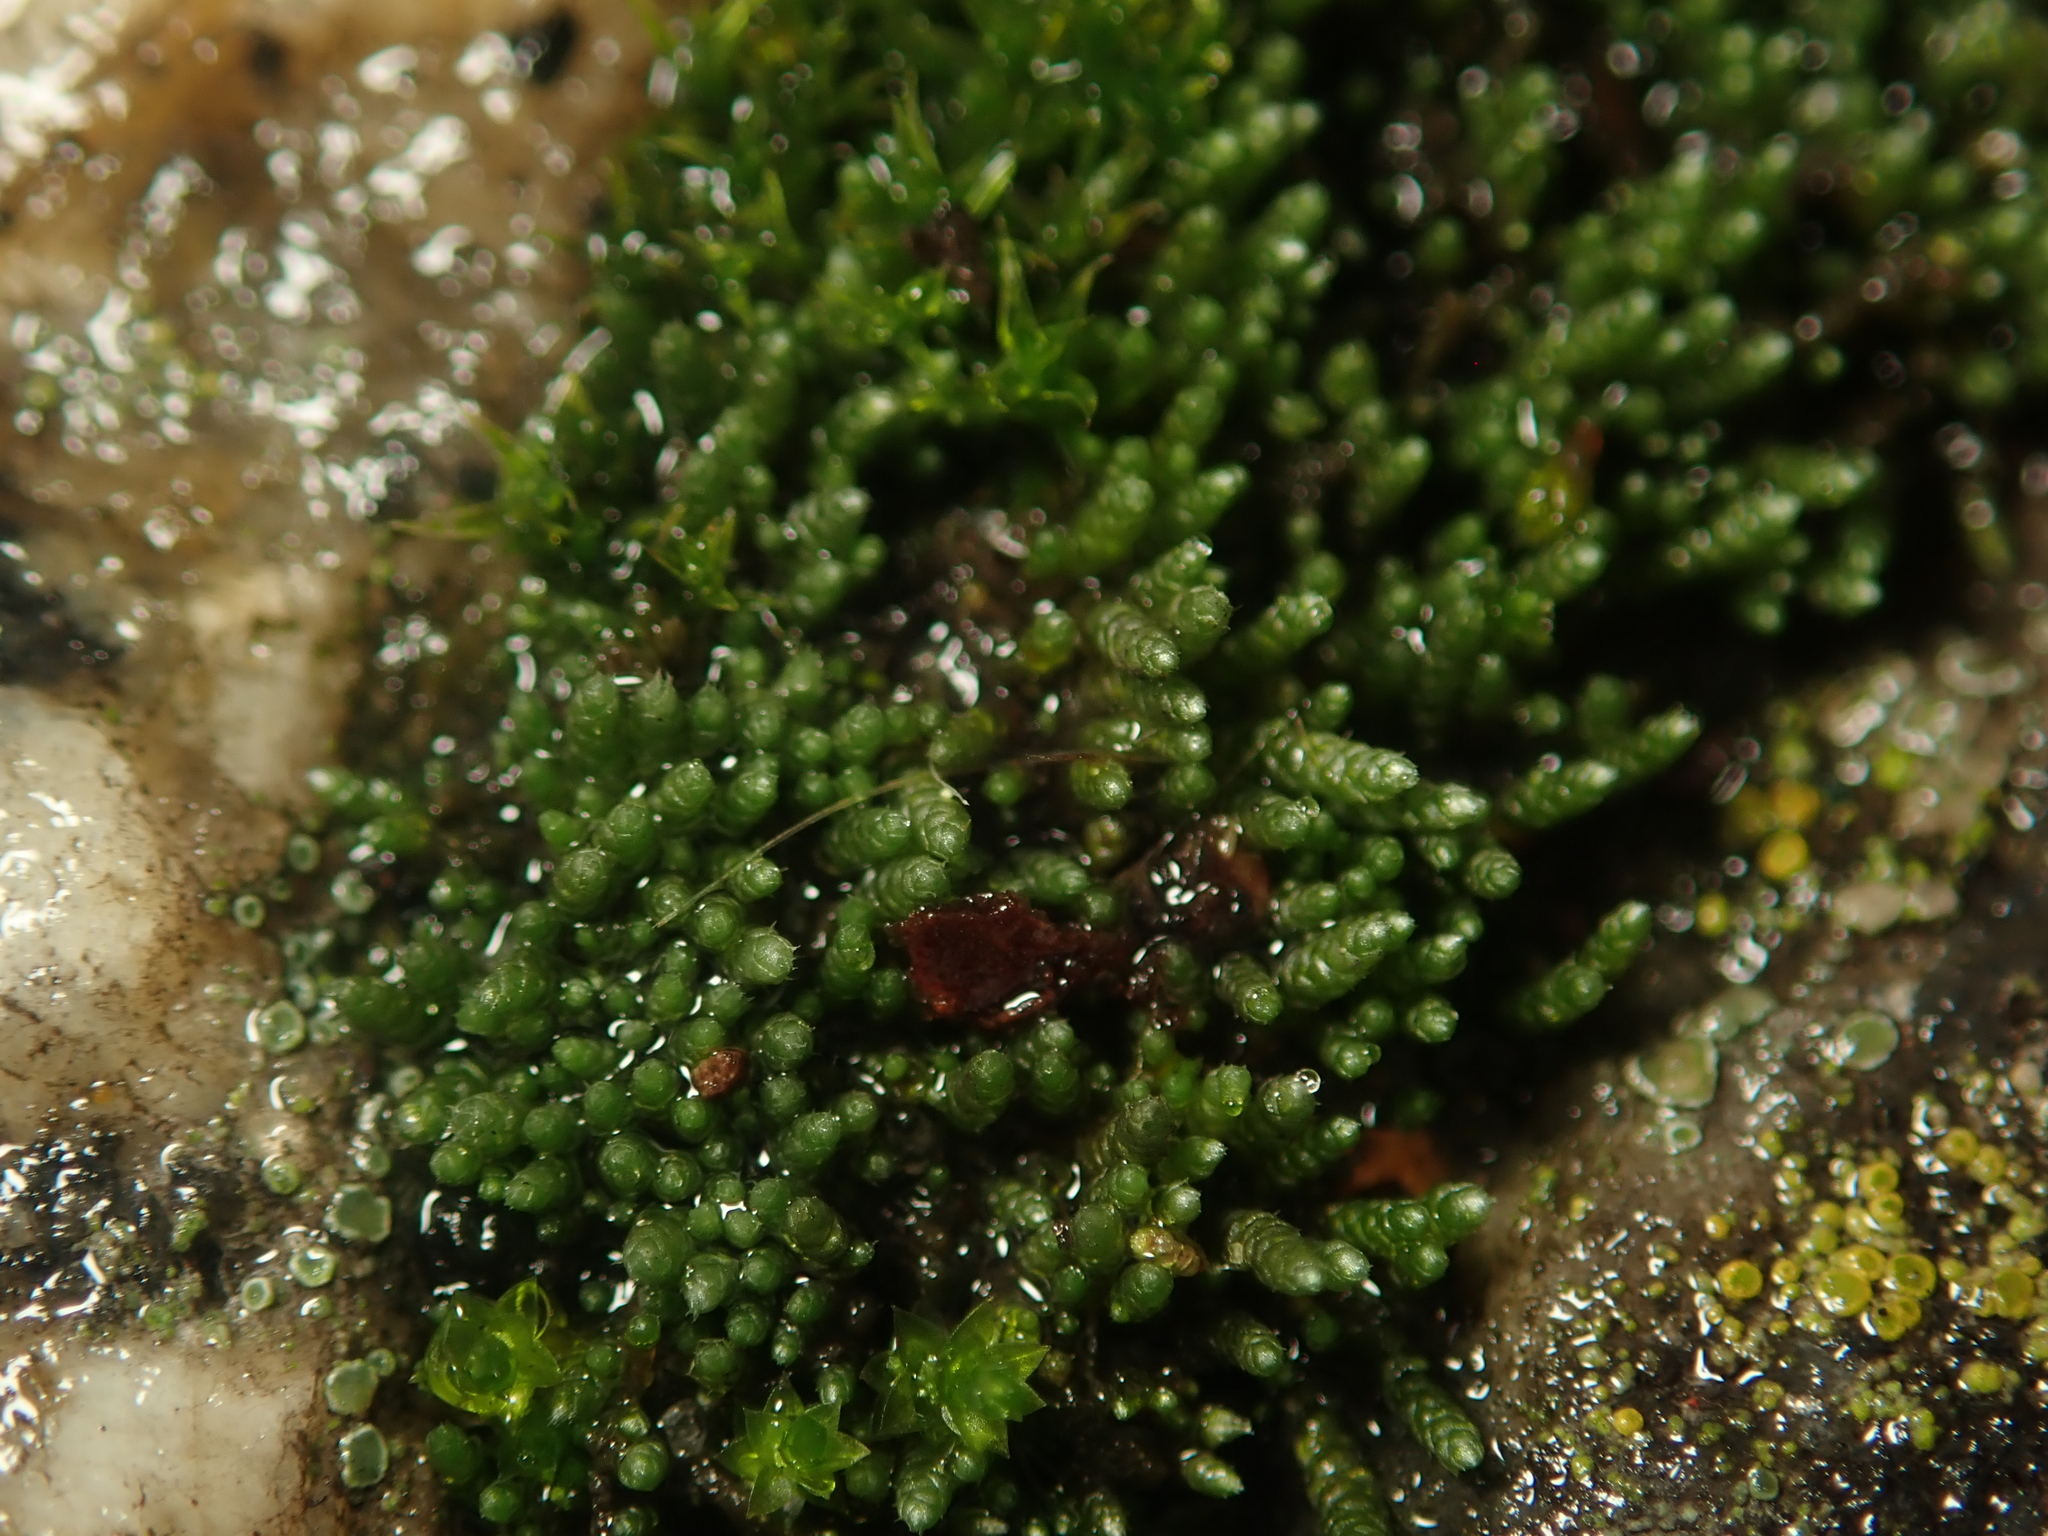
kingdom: Plantae
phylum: Bryophyta
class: Bryopsida
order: Bryales
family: Bryaceae
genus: Bryum
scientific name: Bryum argenteum
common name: Silver-moss
